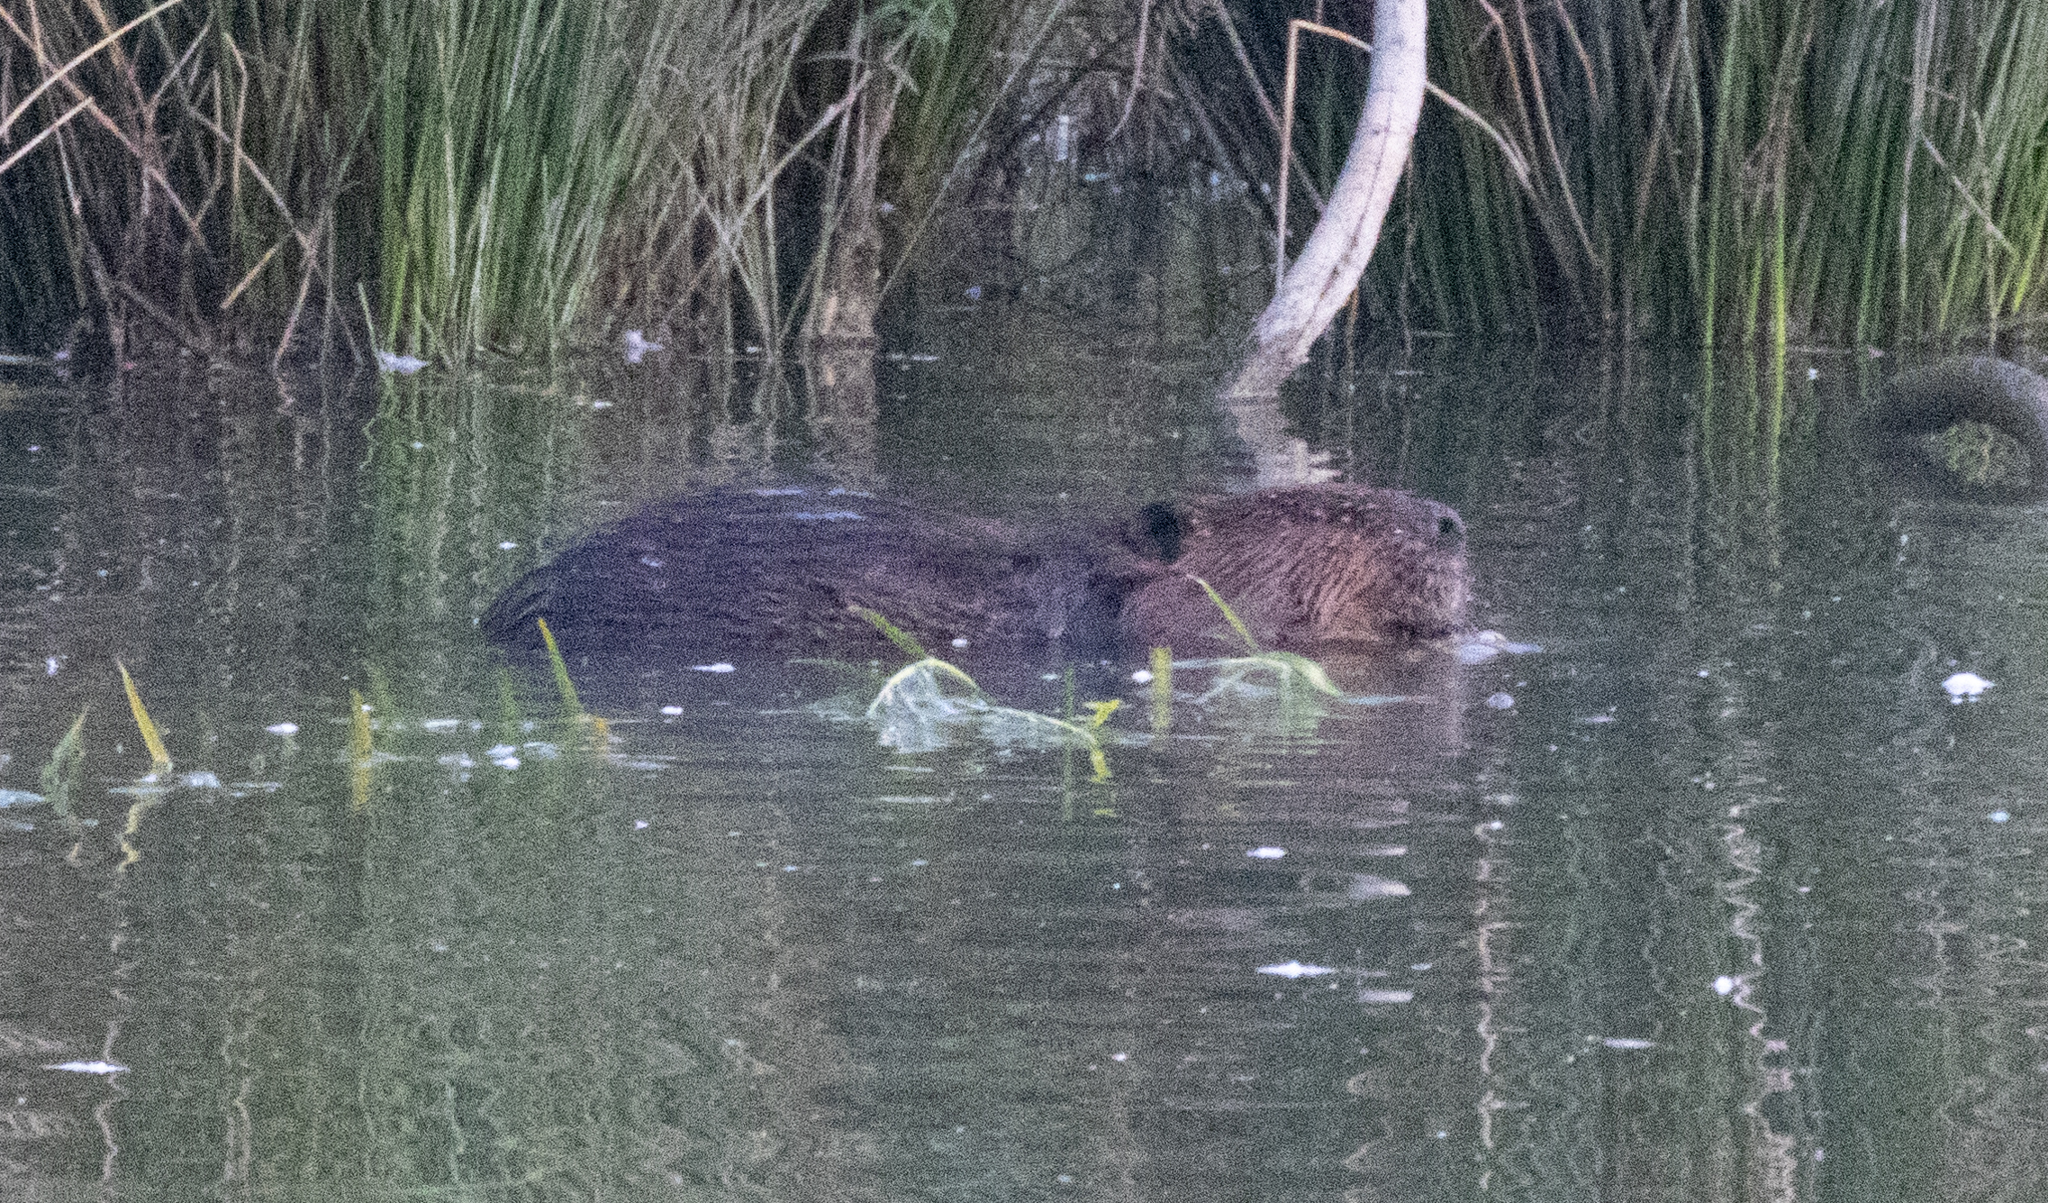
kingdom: Animalia
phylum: Chordata
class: Mammalia
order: Rodentia
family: Castoridae
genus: Castor
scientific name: Castor canadensis
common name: American beaver
